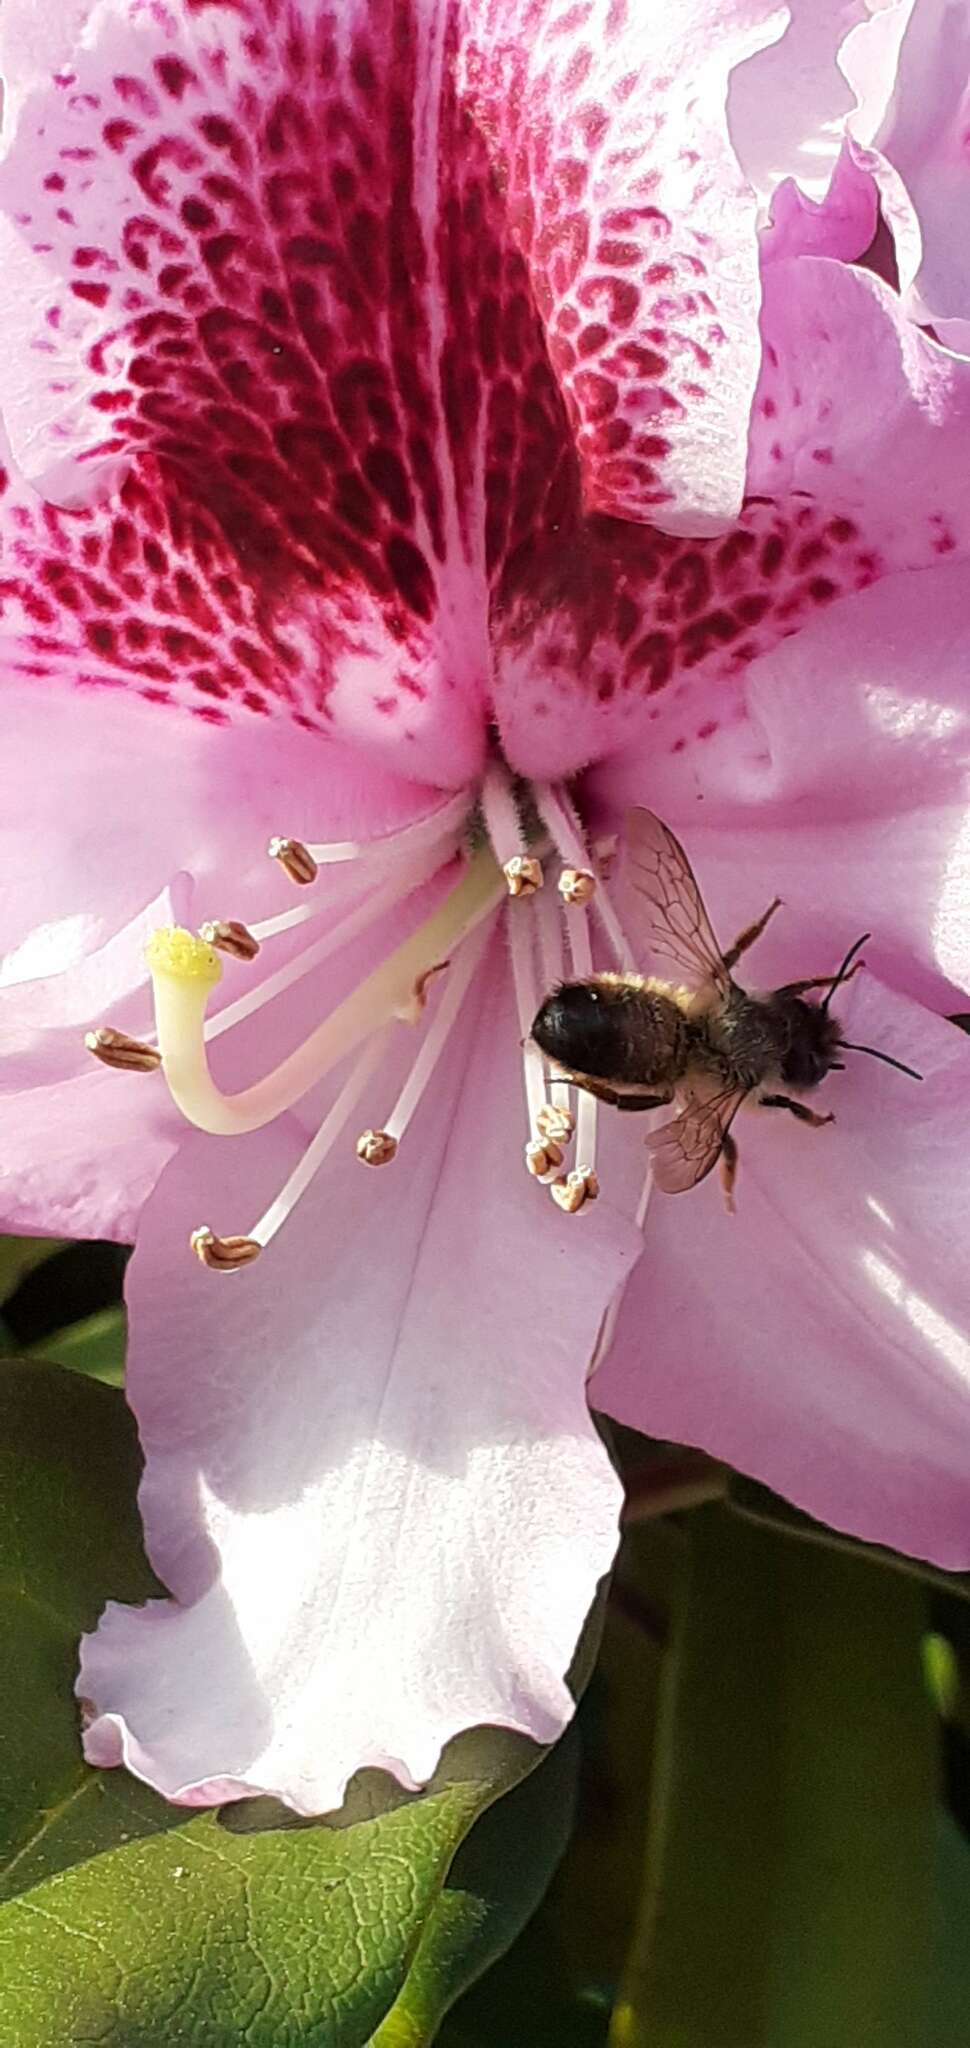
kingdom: Animalia
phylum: Arthropoda
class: Insecta
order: Hymenoptera
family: Megachilidae
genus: Osmia
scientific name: Osmia bicornis
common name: Red mason bee
